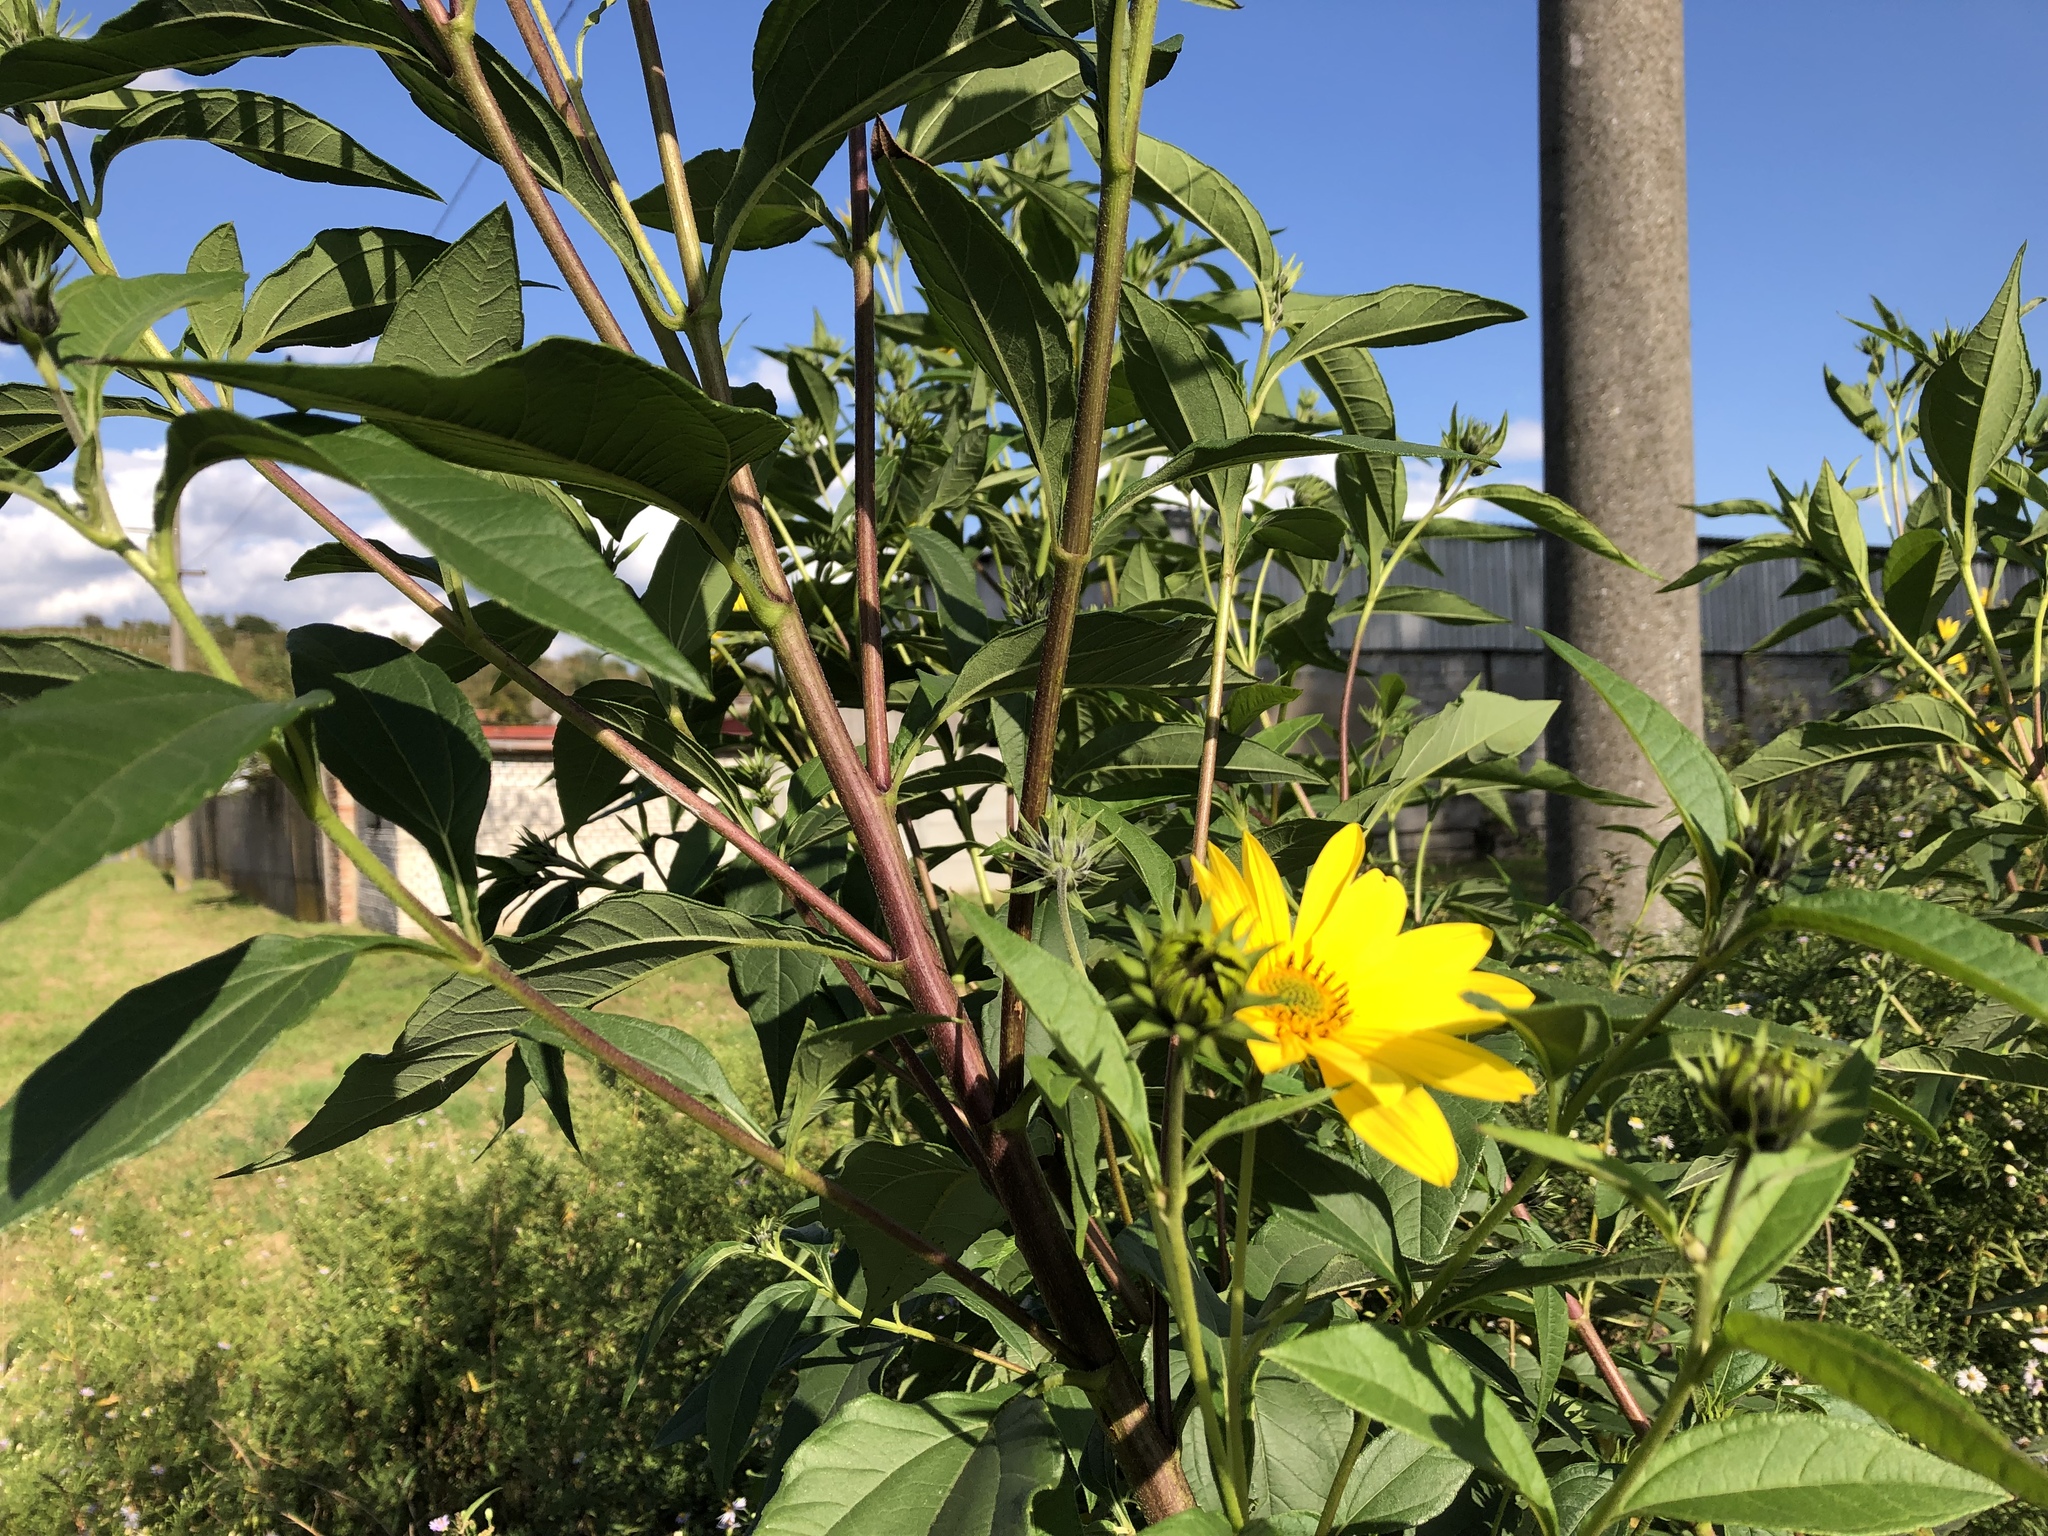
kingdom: Plantae
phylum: Tracheophyta
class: Magnoliopsida
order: Asterales
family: Asteraceae
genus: Helianthus
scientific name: Helianthus tuberosus
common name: Jerusalem artichoke
